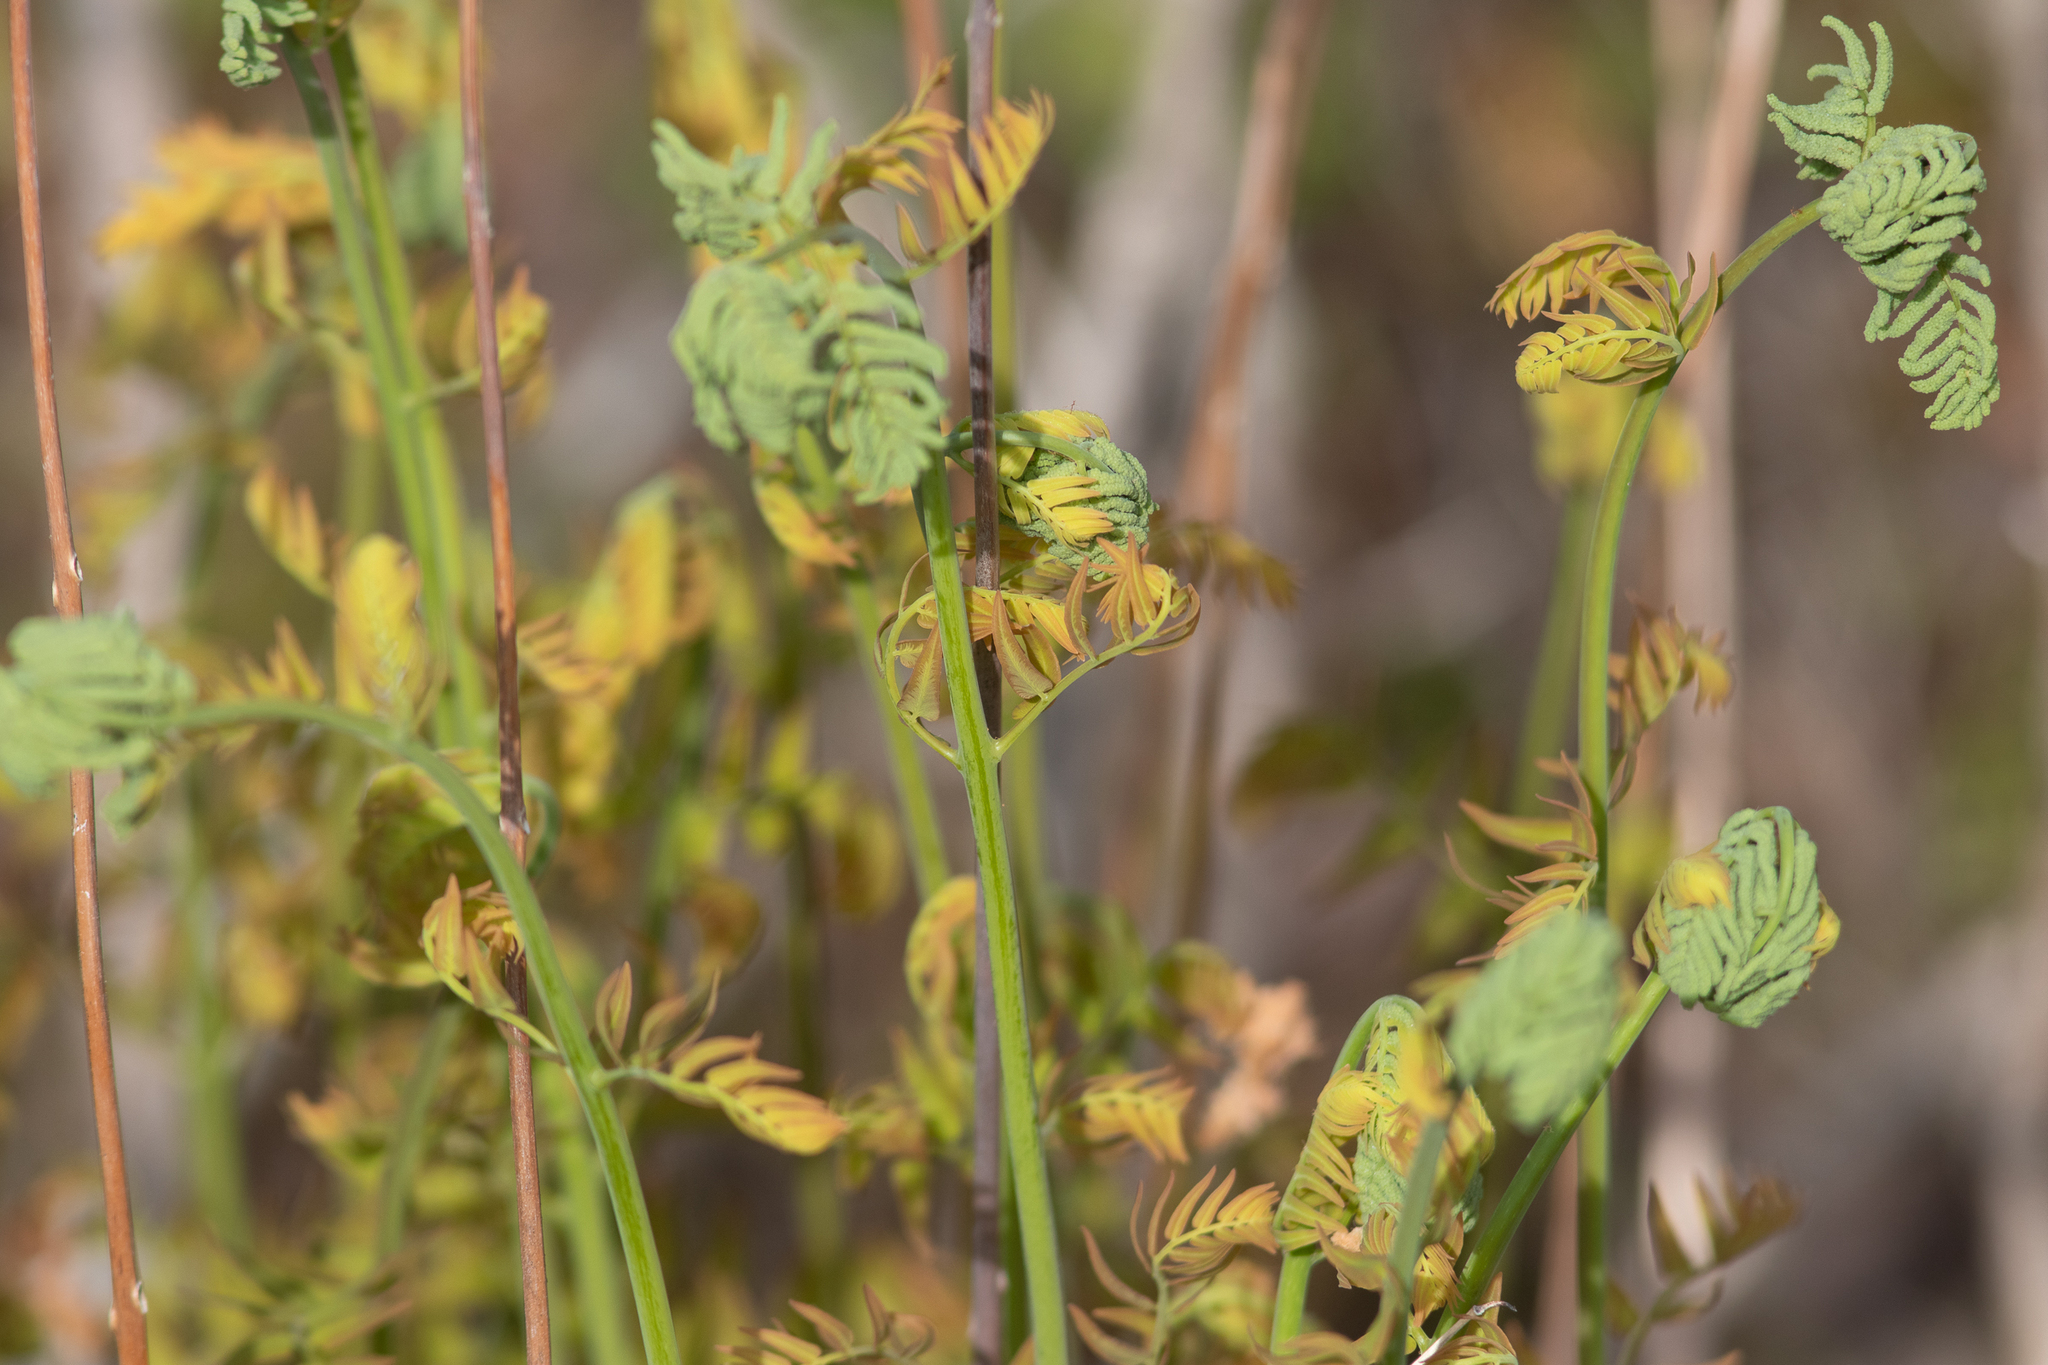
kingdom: Plantae
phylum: Tracheophyta
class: Polypodiopsida
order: Osmundales
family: Osmundaceae
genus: Osmunda
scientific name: Osmunda spectabilis
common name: American royal fern
